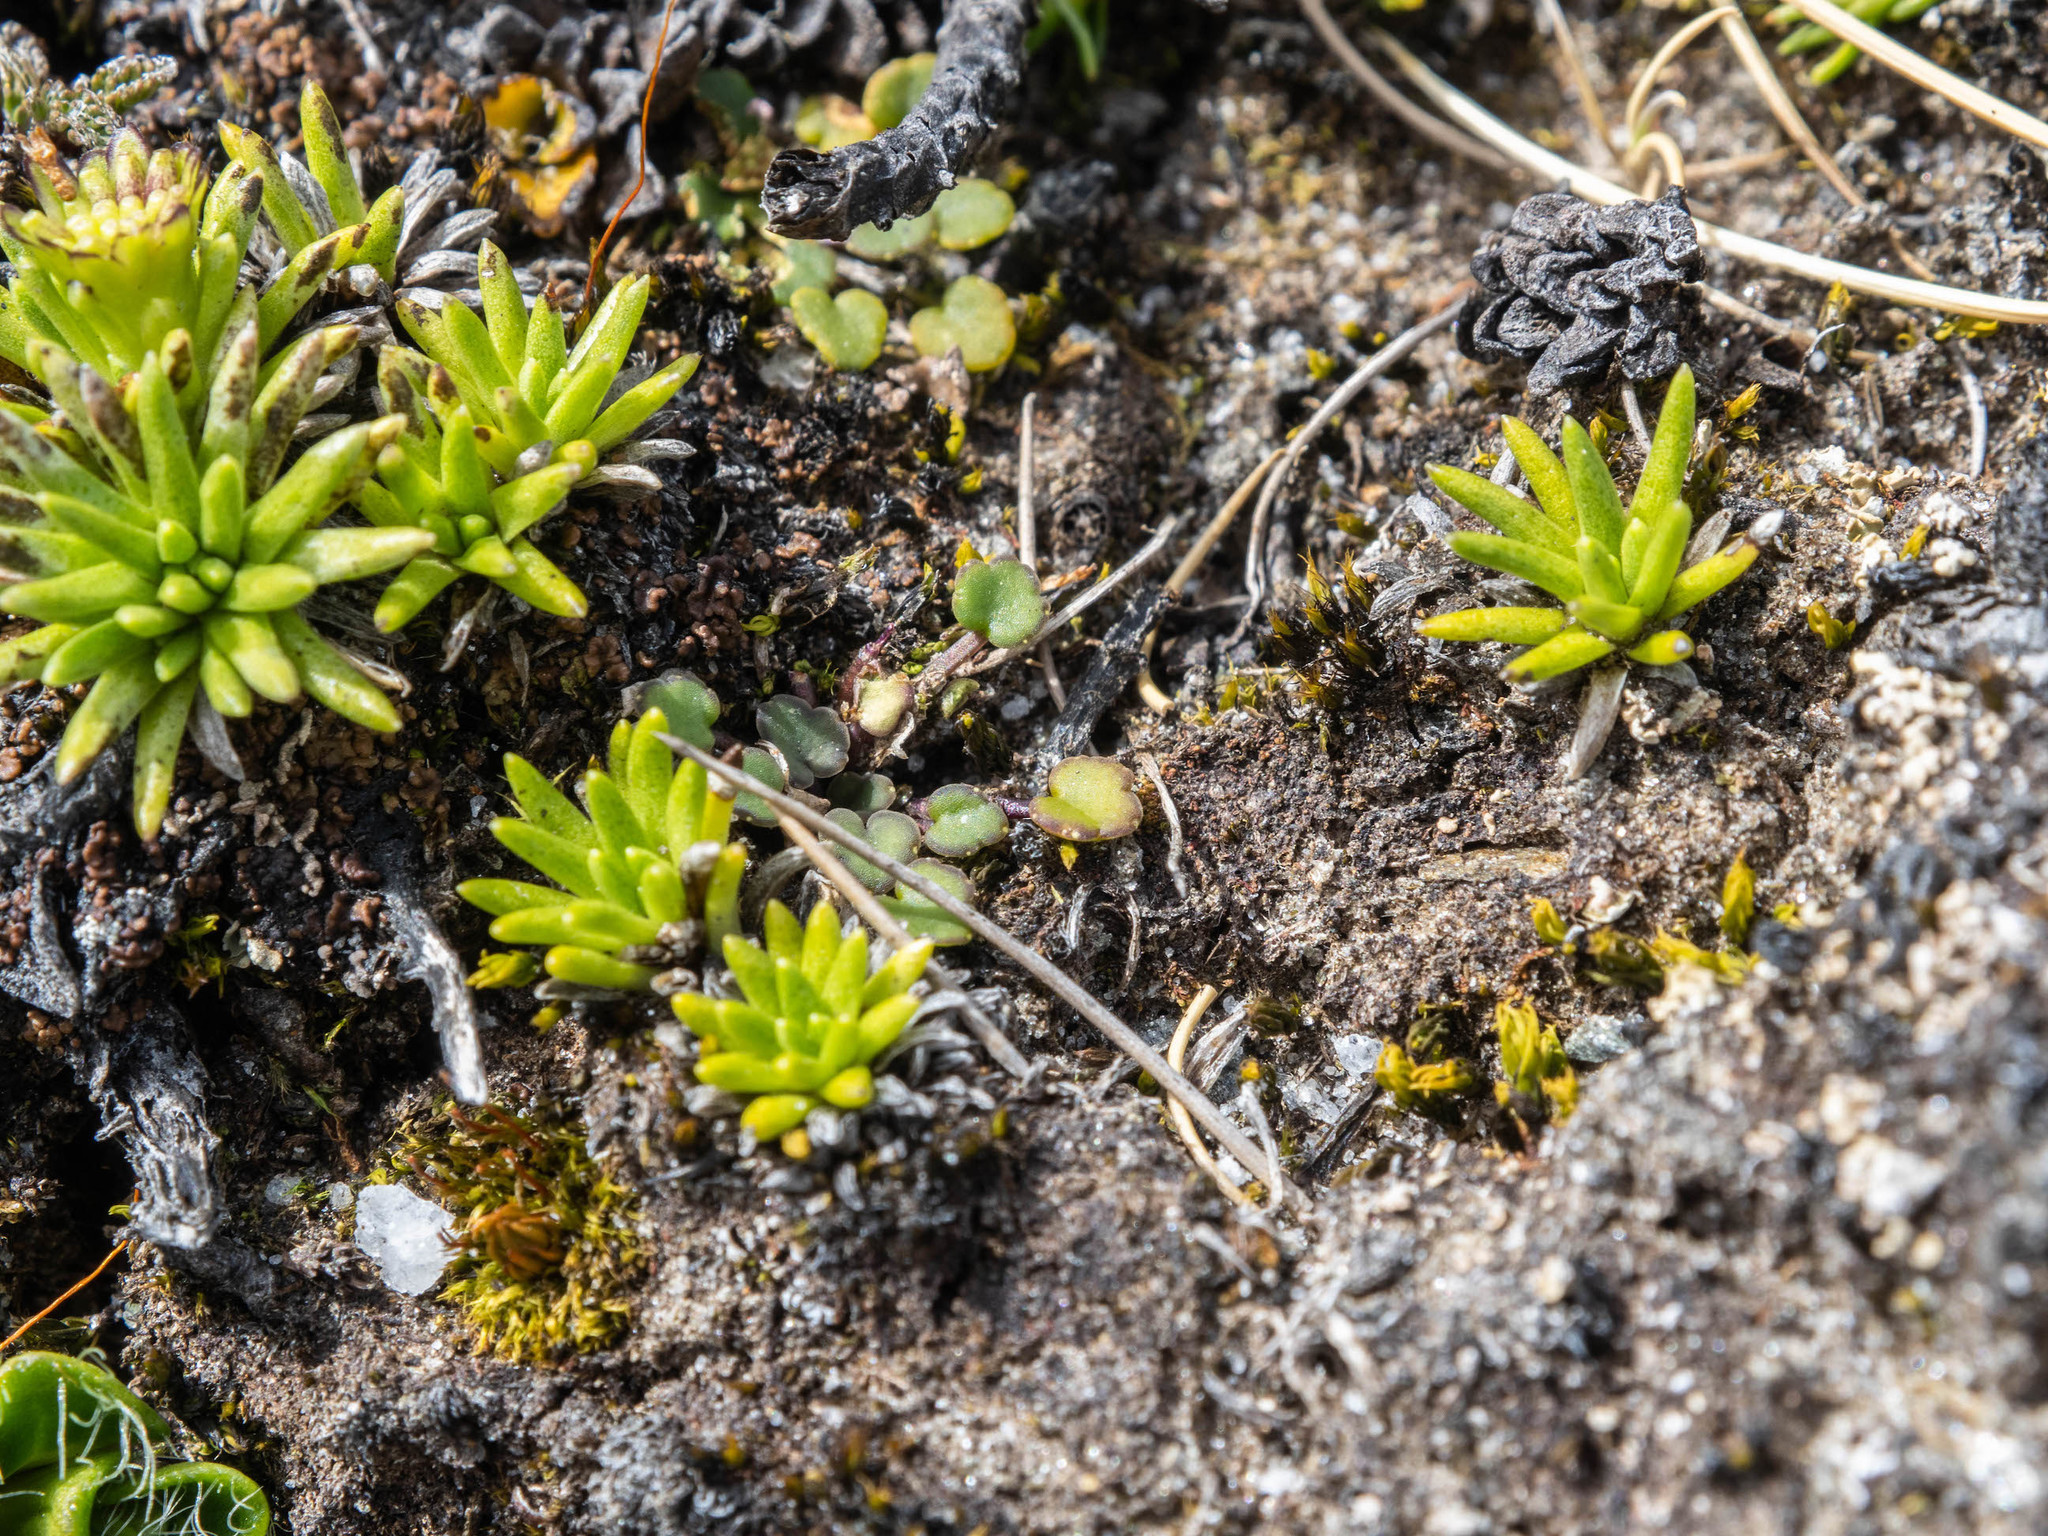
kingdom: Plantae
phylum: Tracheophyta
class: Magnoliopsida
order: Apiales
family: Apiaceae
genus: Azorella
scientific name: Azorella exigua
